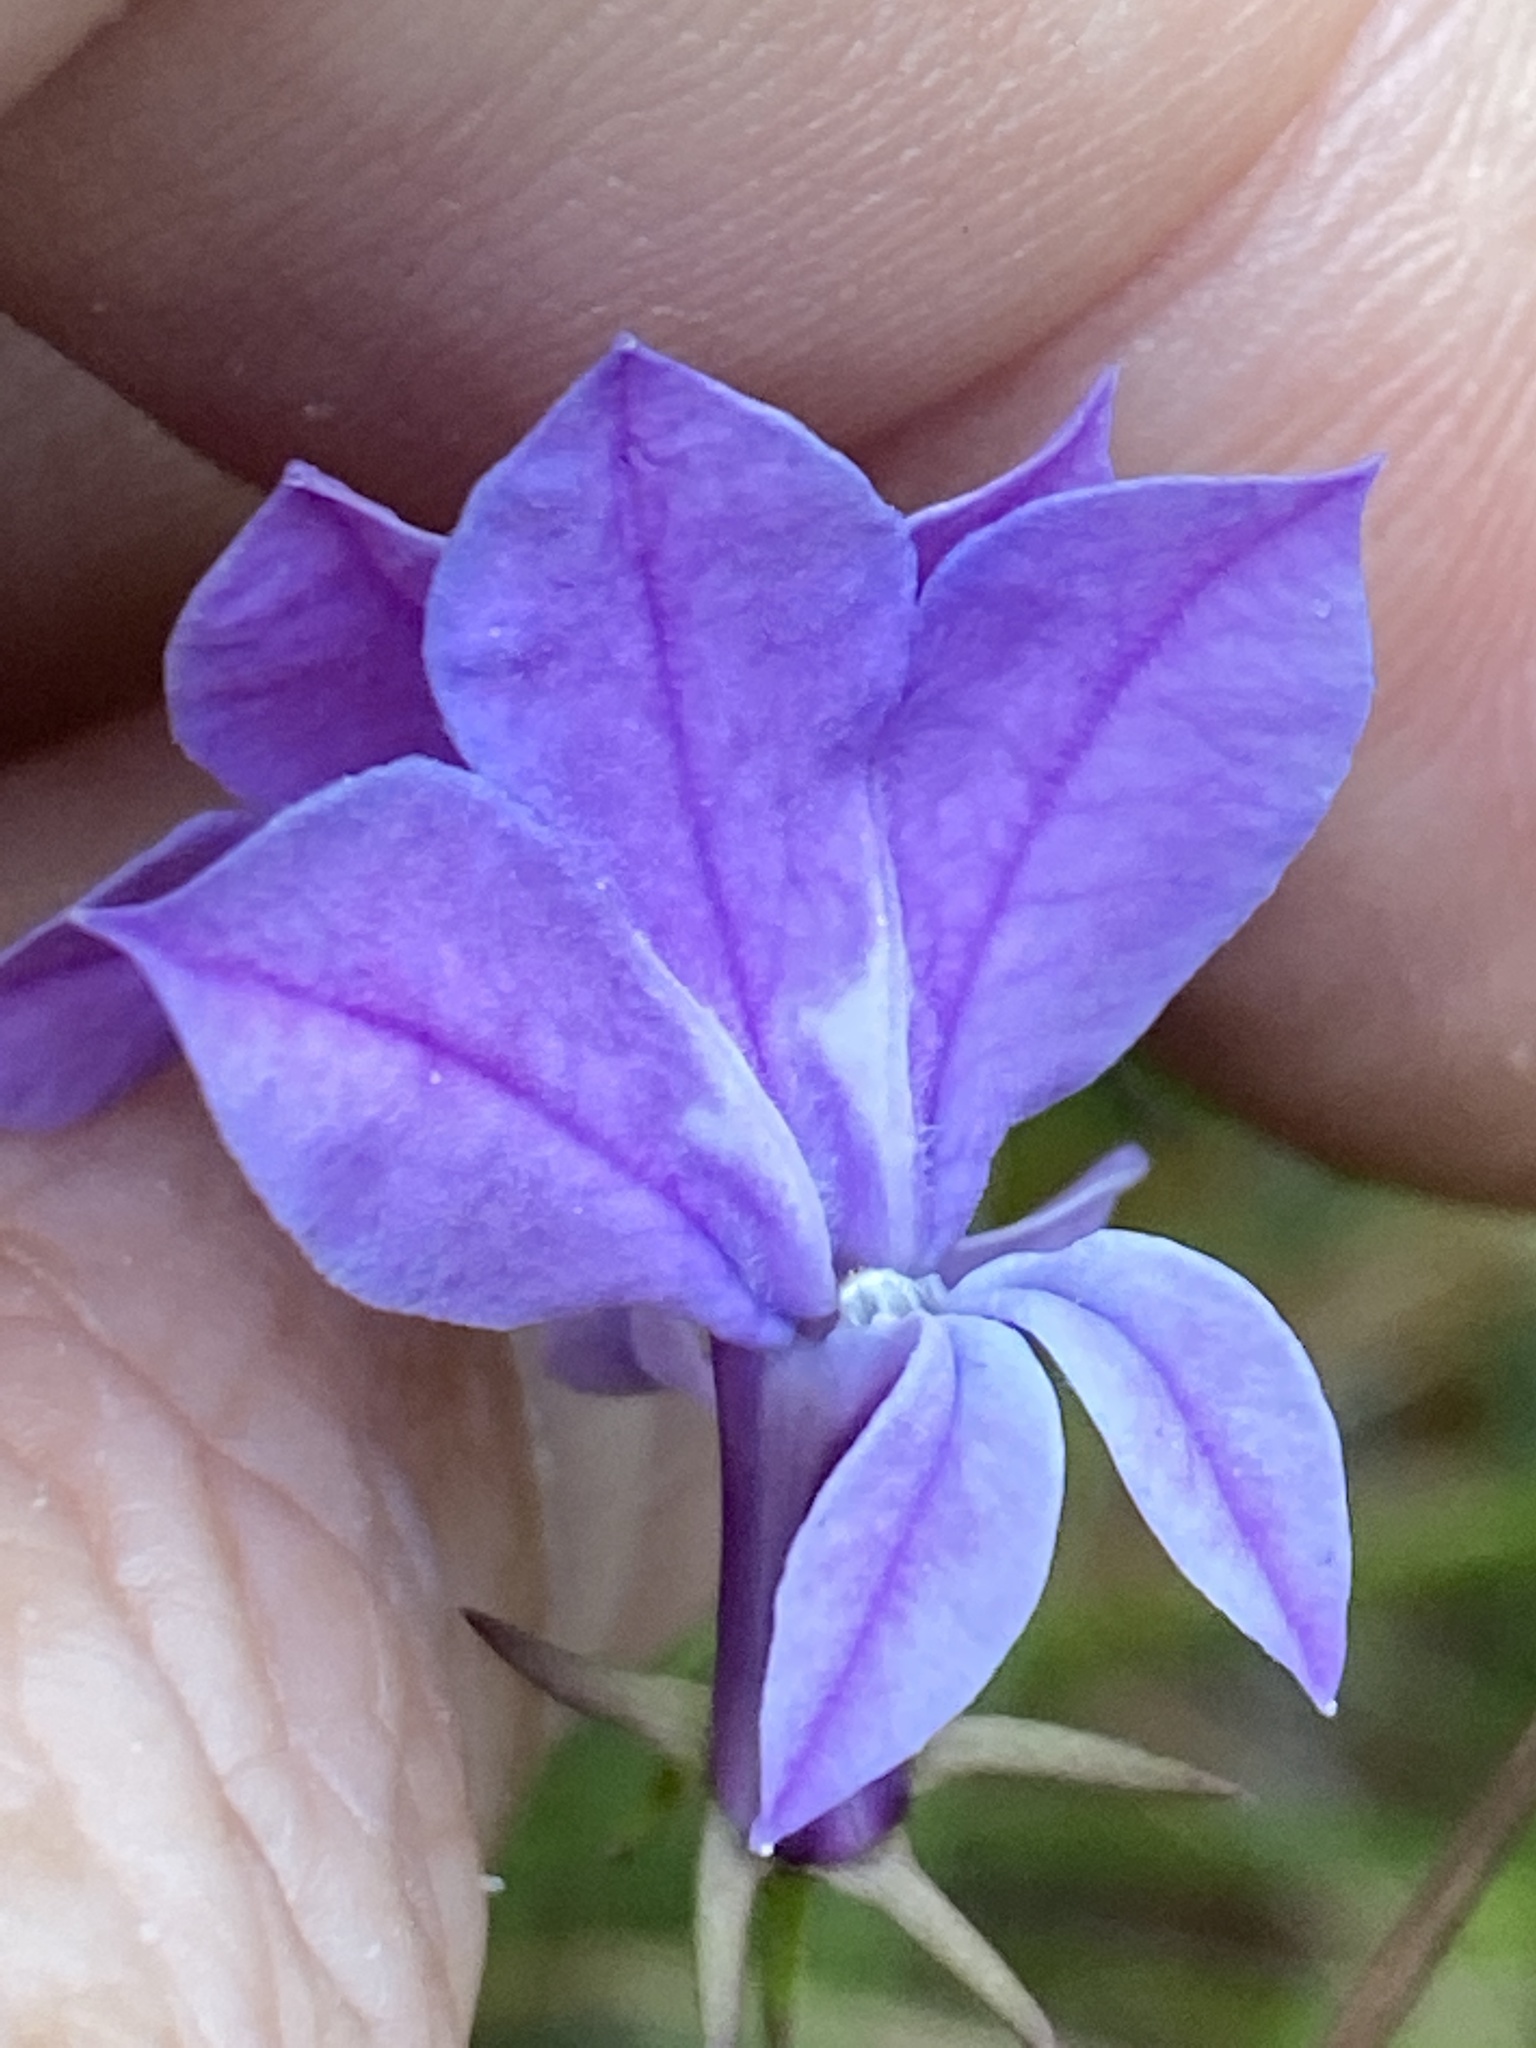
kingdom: Plantae
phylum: Tracheophyta
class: Magnoliopsida
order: Asterales
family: Campanulaceae
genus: Lobelia
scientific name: Lobelia glandulosa
